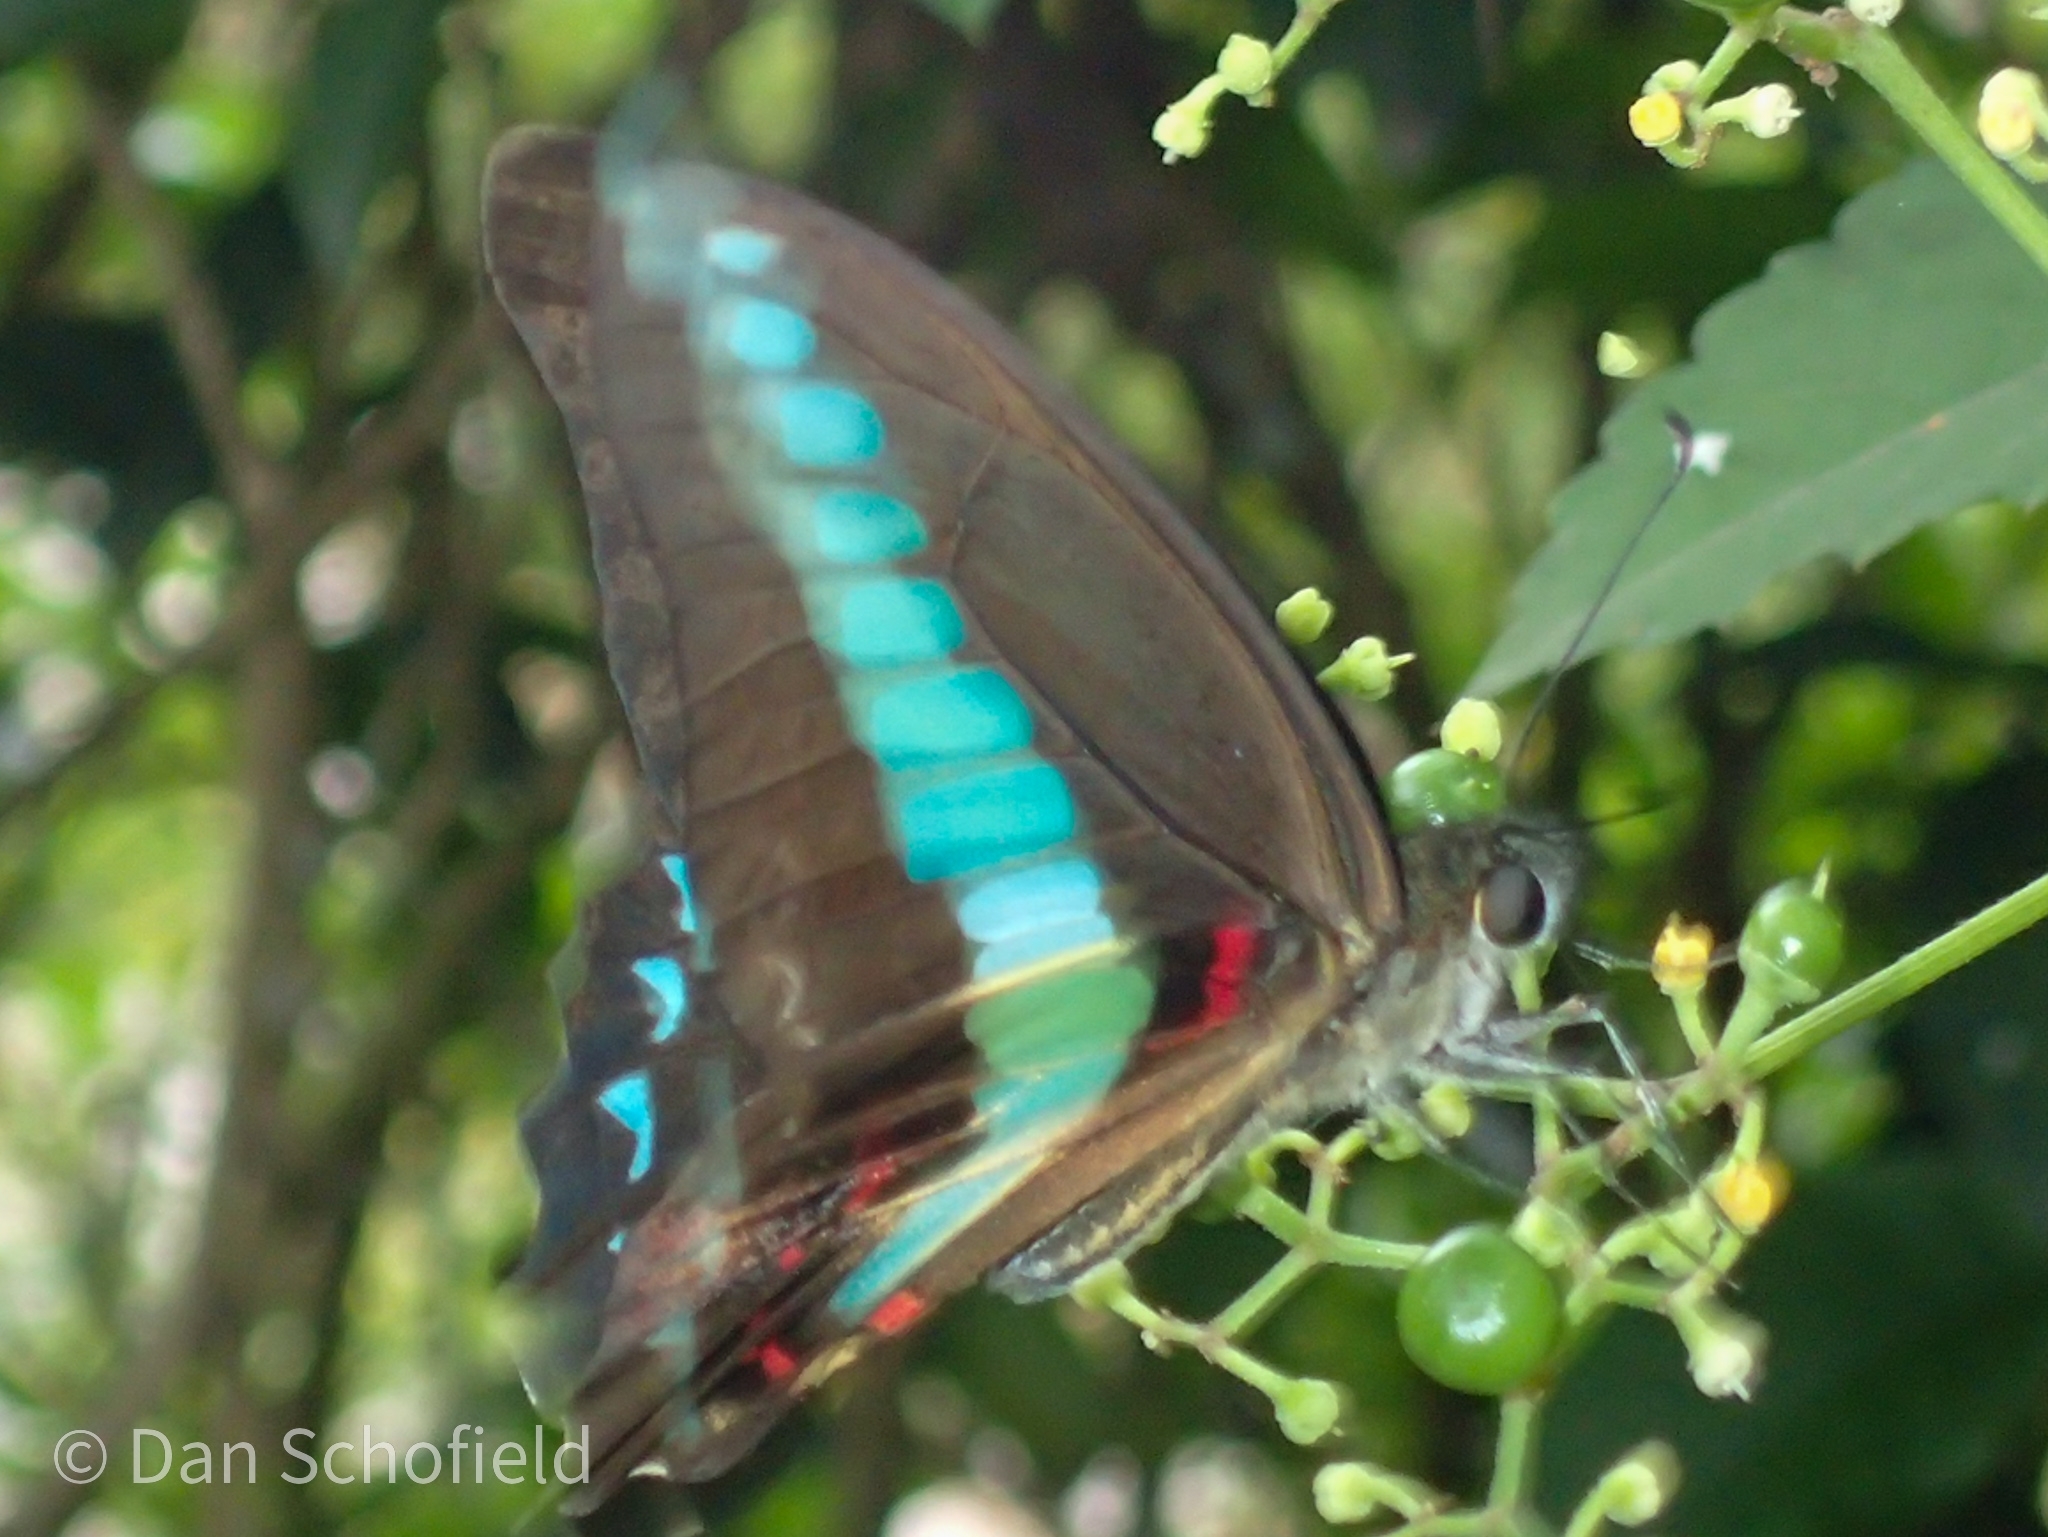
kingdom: Fungi
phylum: Ascomycota
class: Sordariomycetes
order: Microascales
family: Microascaceae
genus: Graphium
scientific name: Graphium sarpedon
